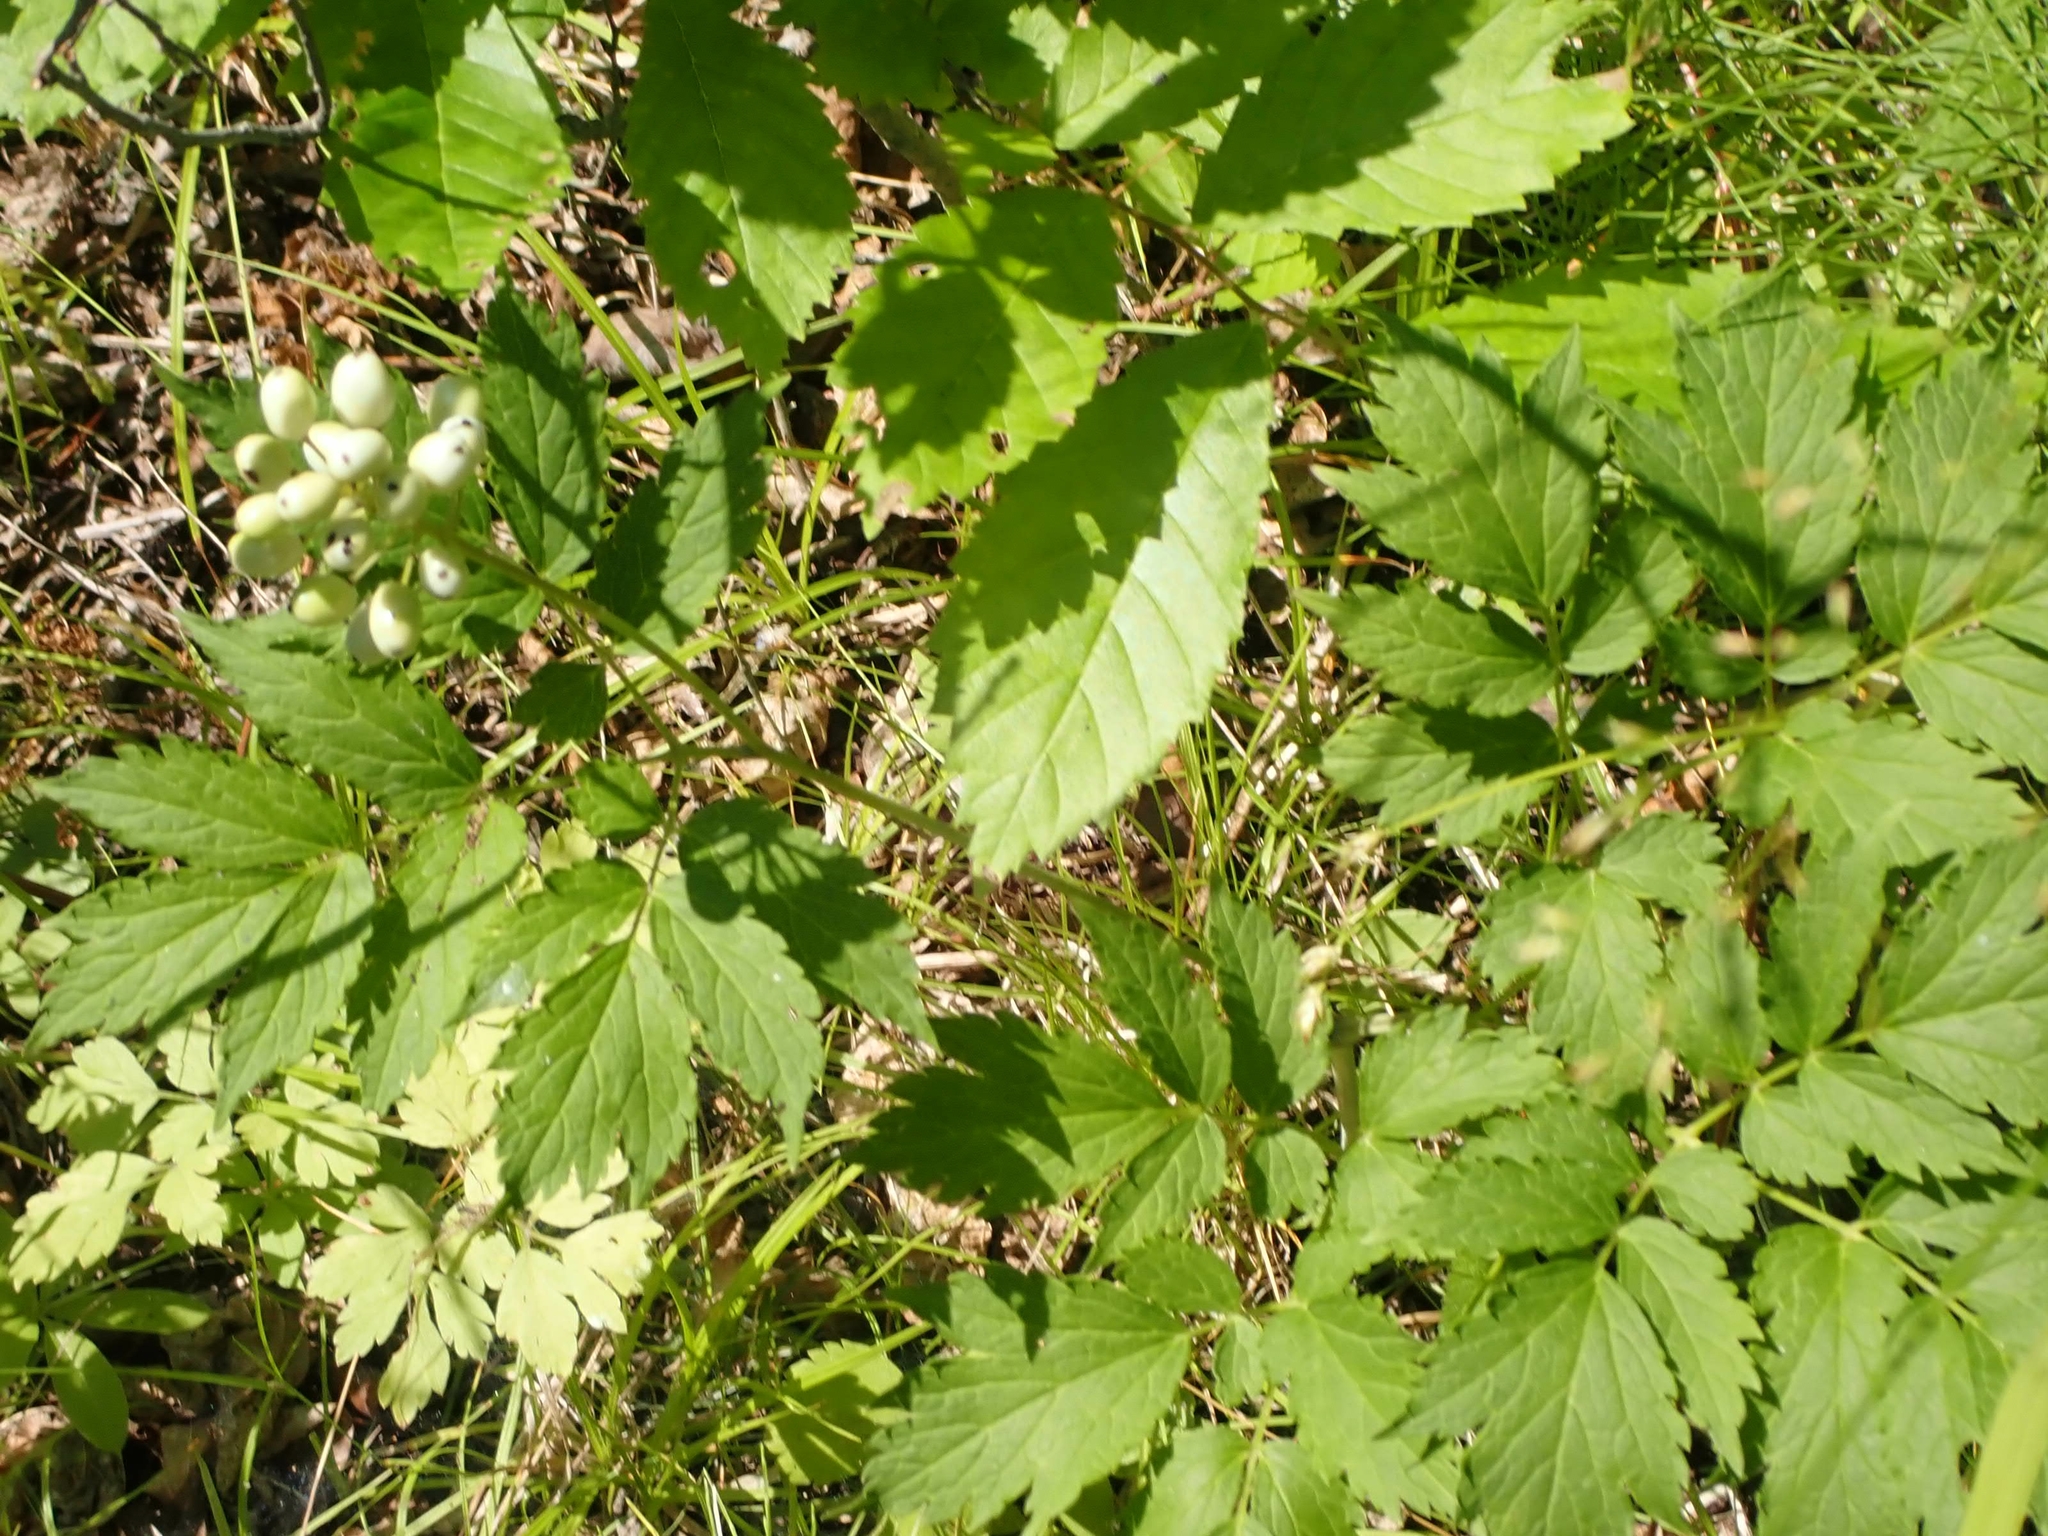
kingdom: Plantae
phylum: Tracheophyta
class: Magnoliopsida
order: Ranunculales
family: Ranunculaceae
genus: Actaea
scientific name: Actaea rubra
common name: Red baneberry
